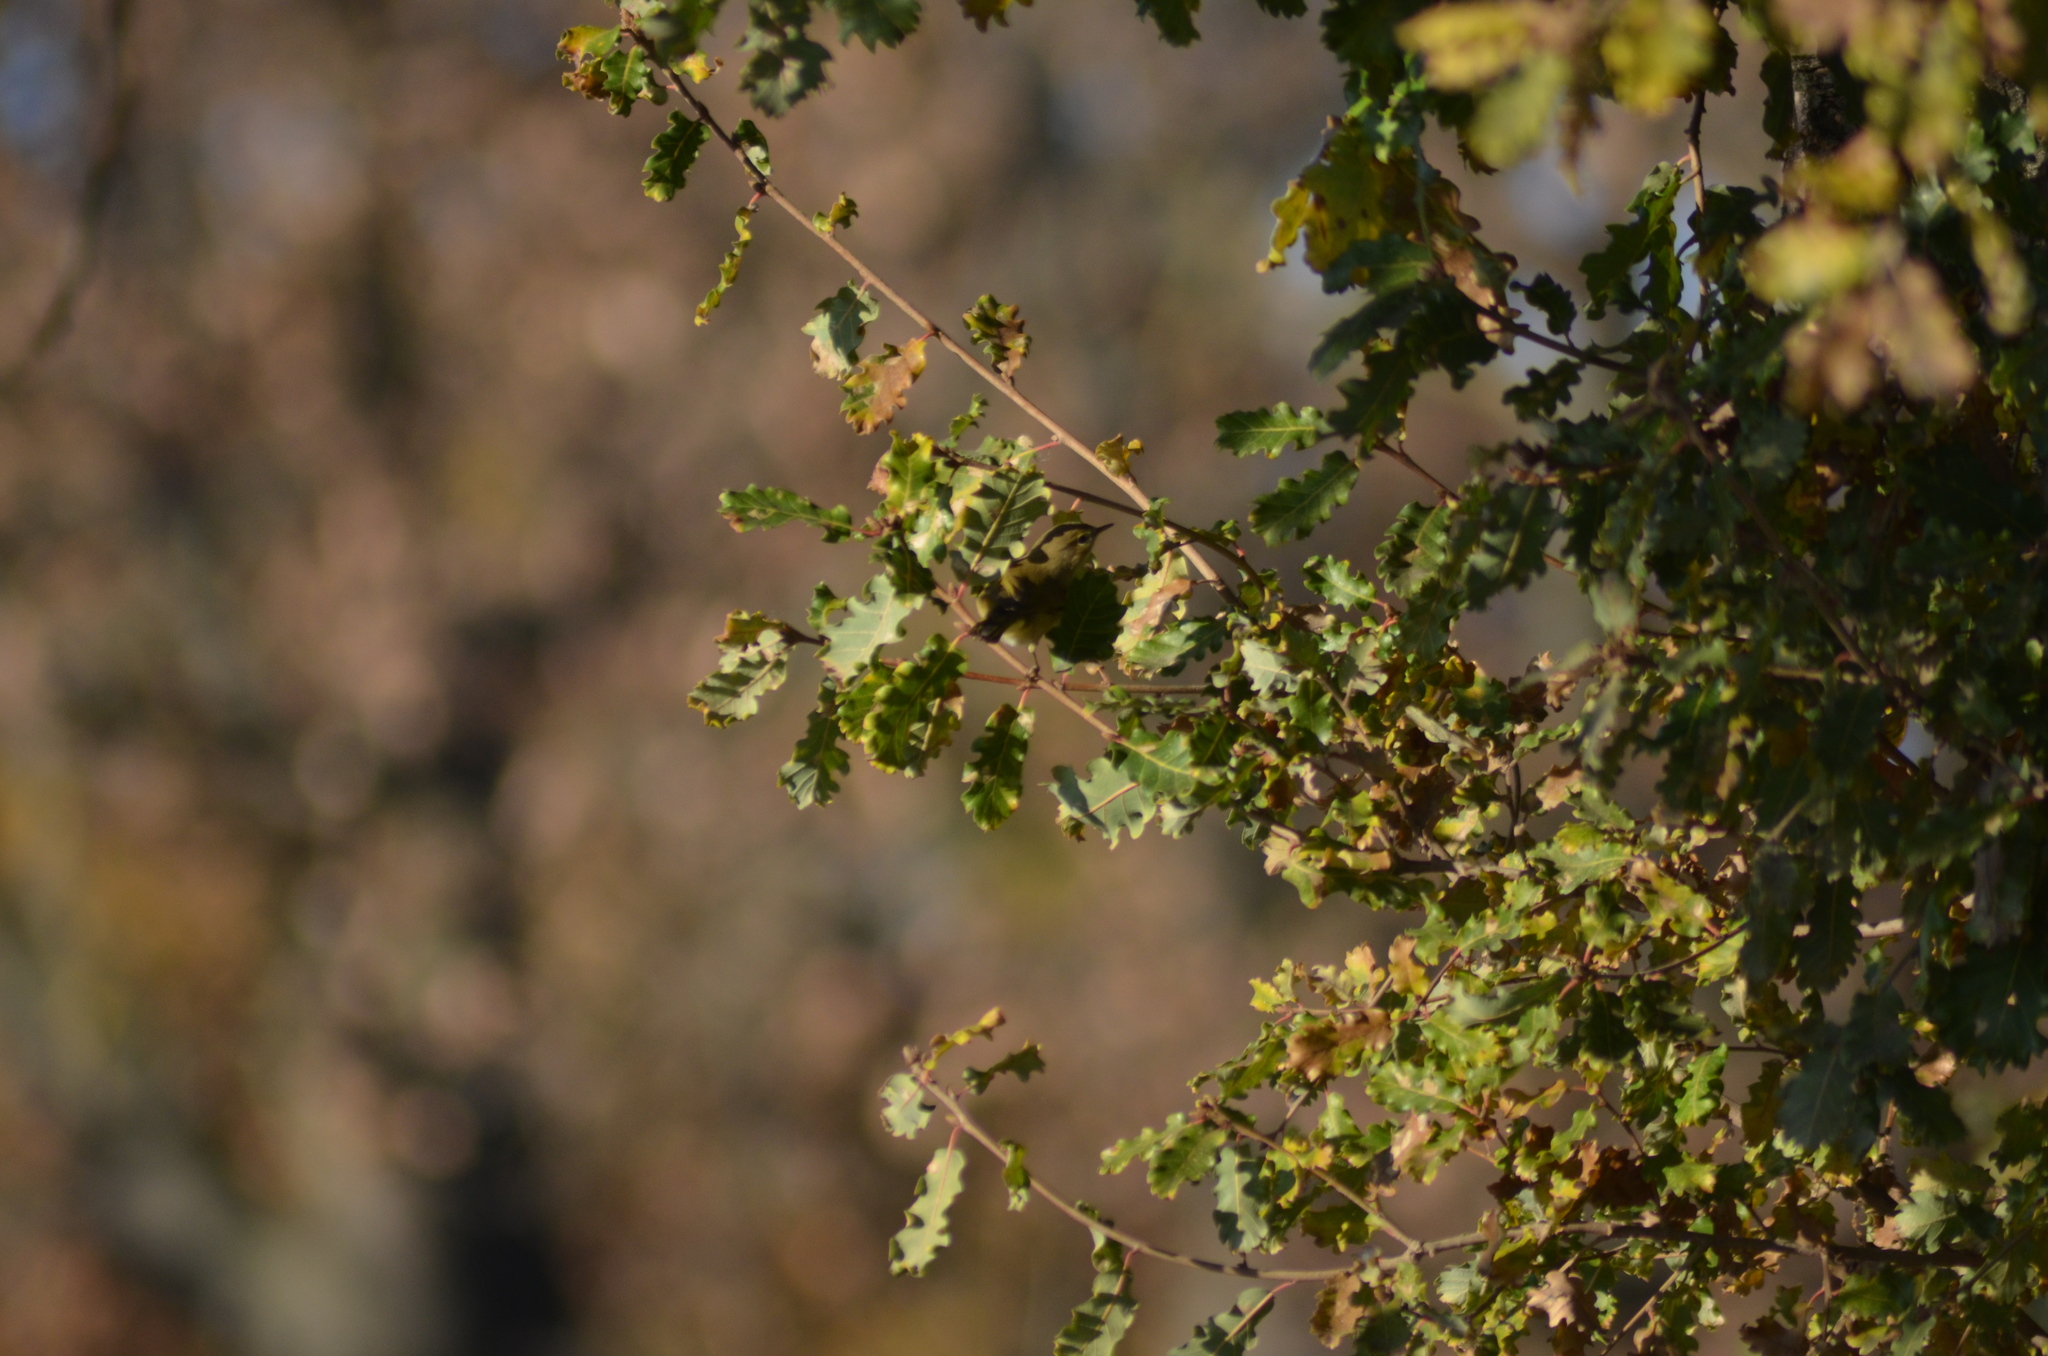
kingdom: Animalia
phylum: Chordata
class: Aves
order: Passeriformes
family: Phylloscopidae
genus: Phylloscopus
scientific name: Phylloscopus collybita
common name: Common chiffchaff
